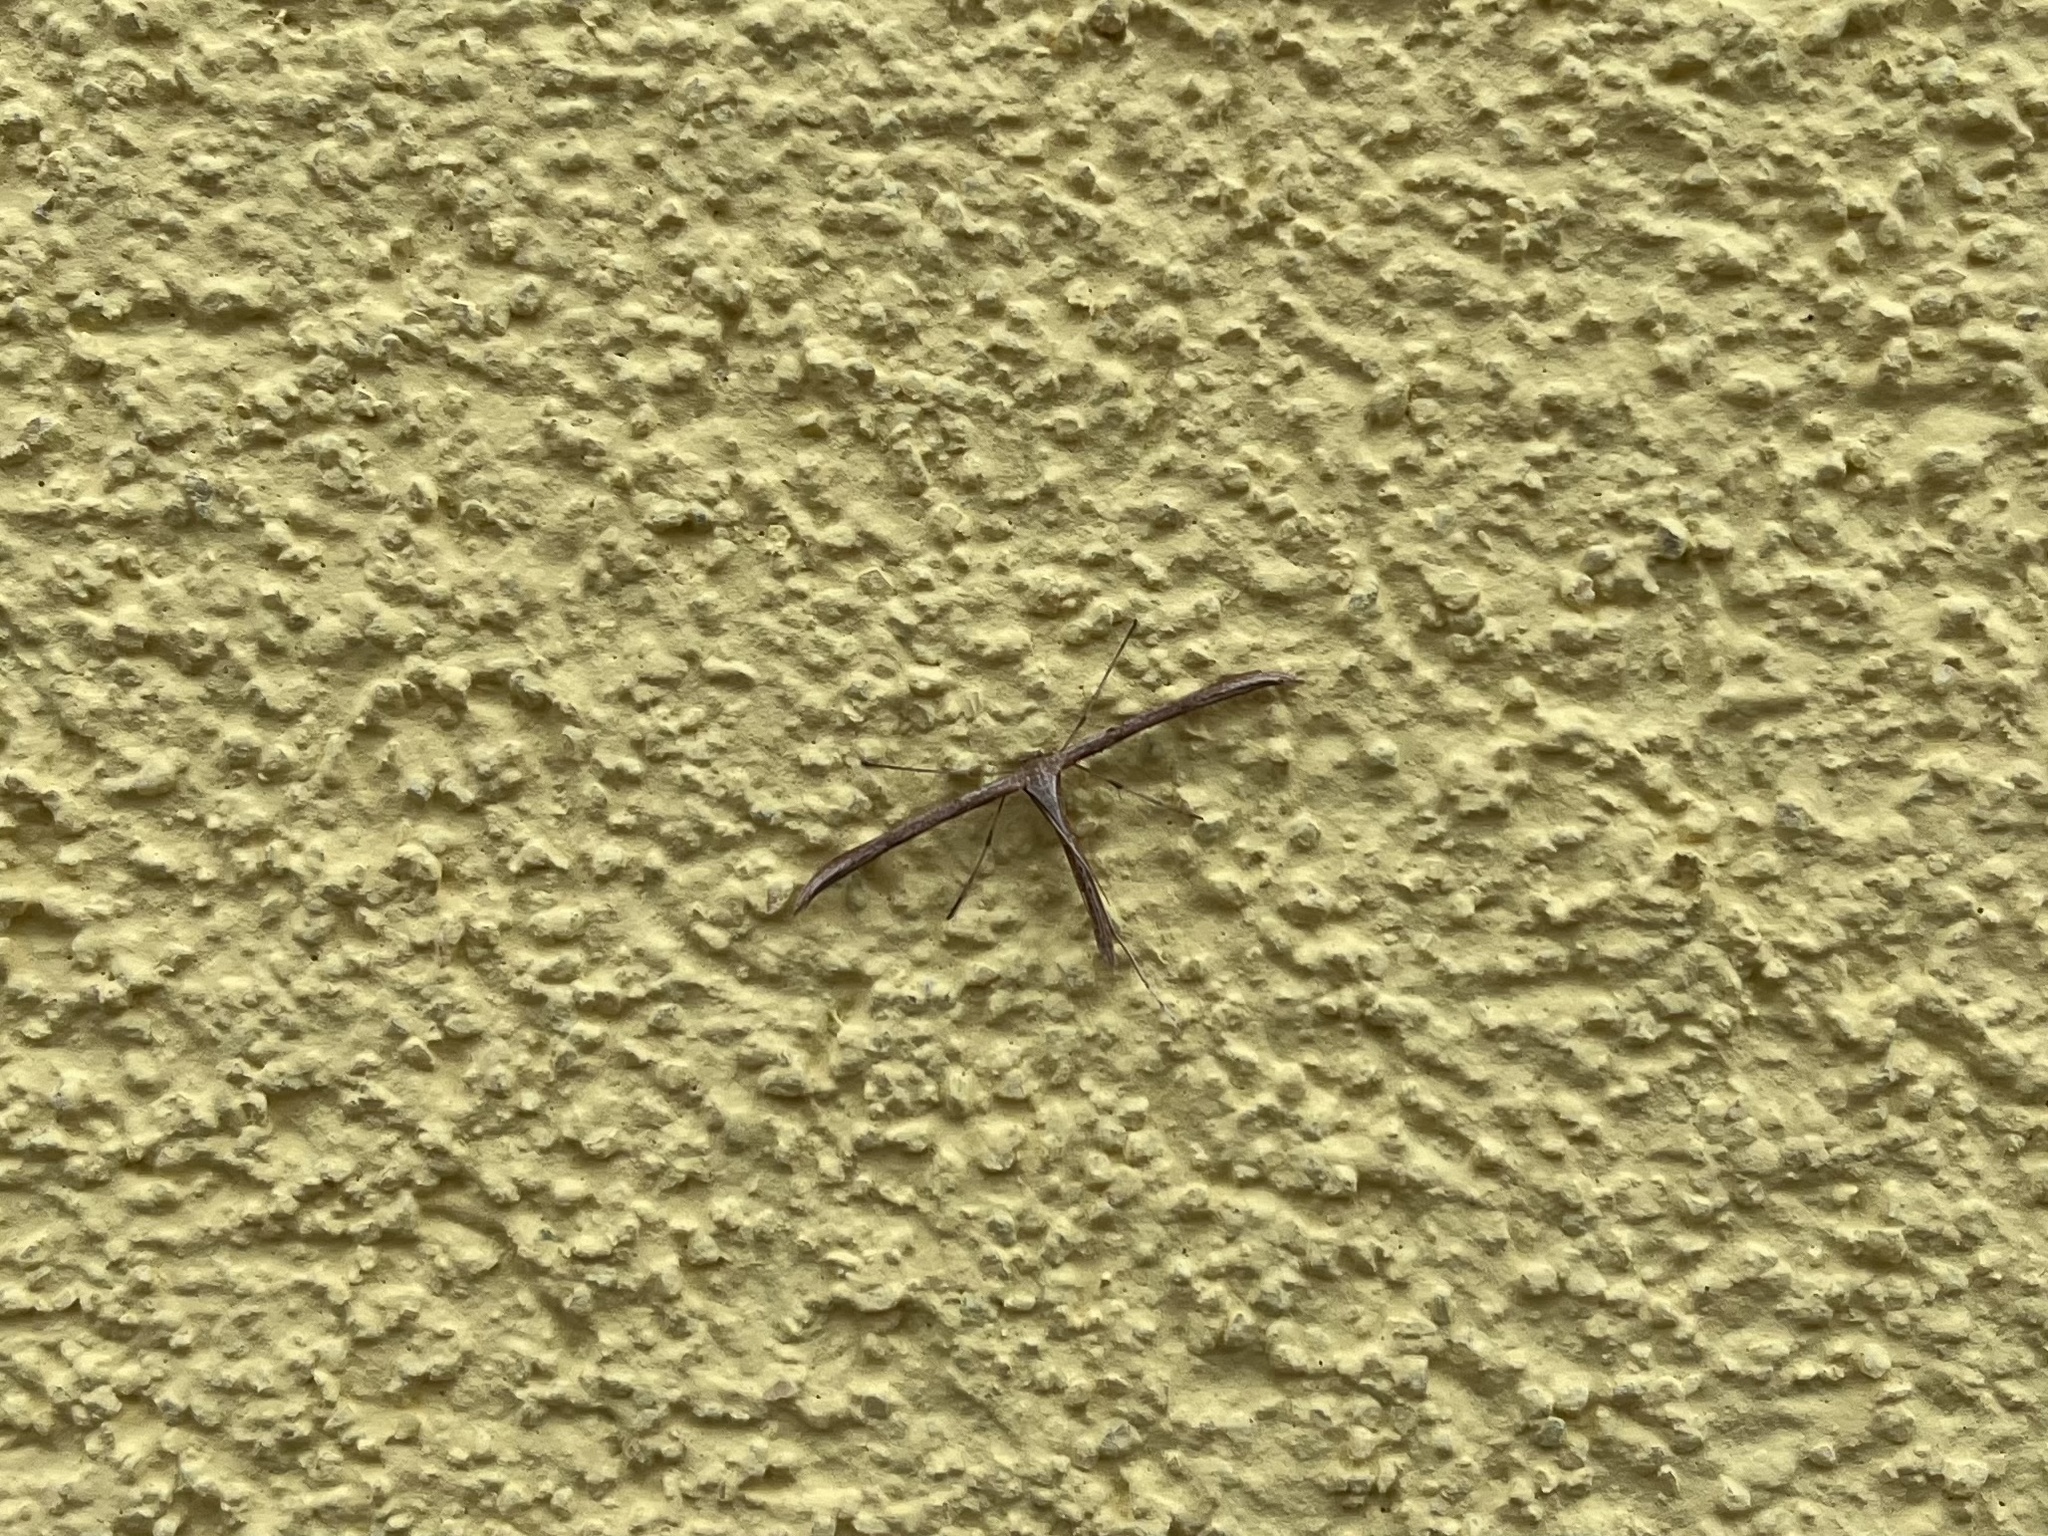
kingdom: Animalia
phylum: Arthropoda
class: Insecta
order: Lepidoptera
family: Pterophoridae
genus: Emmelina
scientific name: Emmelina monodactyla
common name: Common plume
